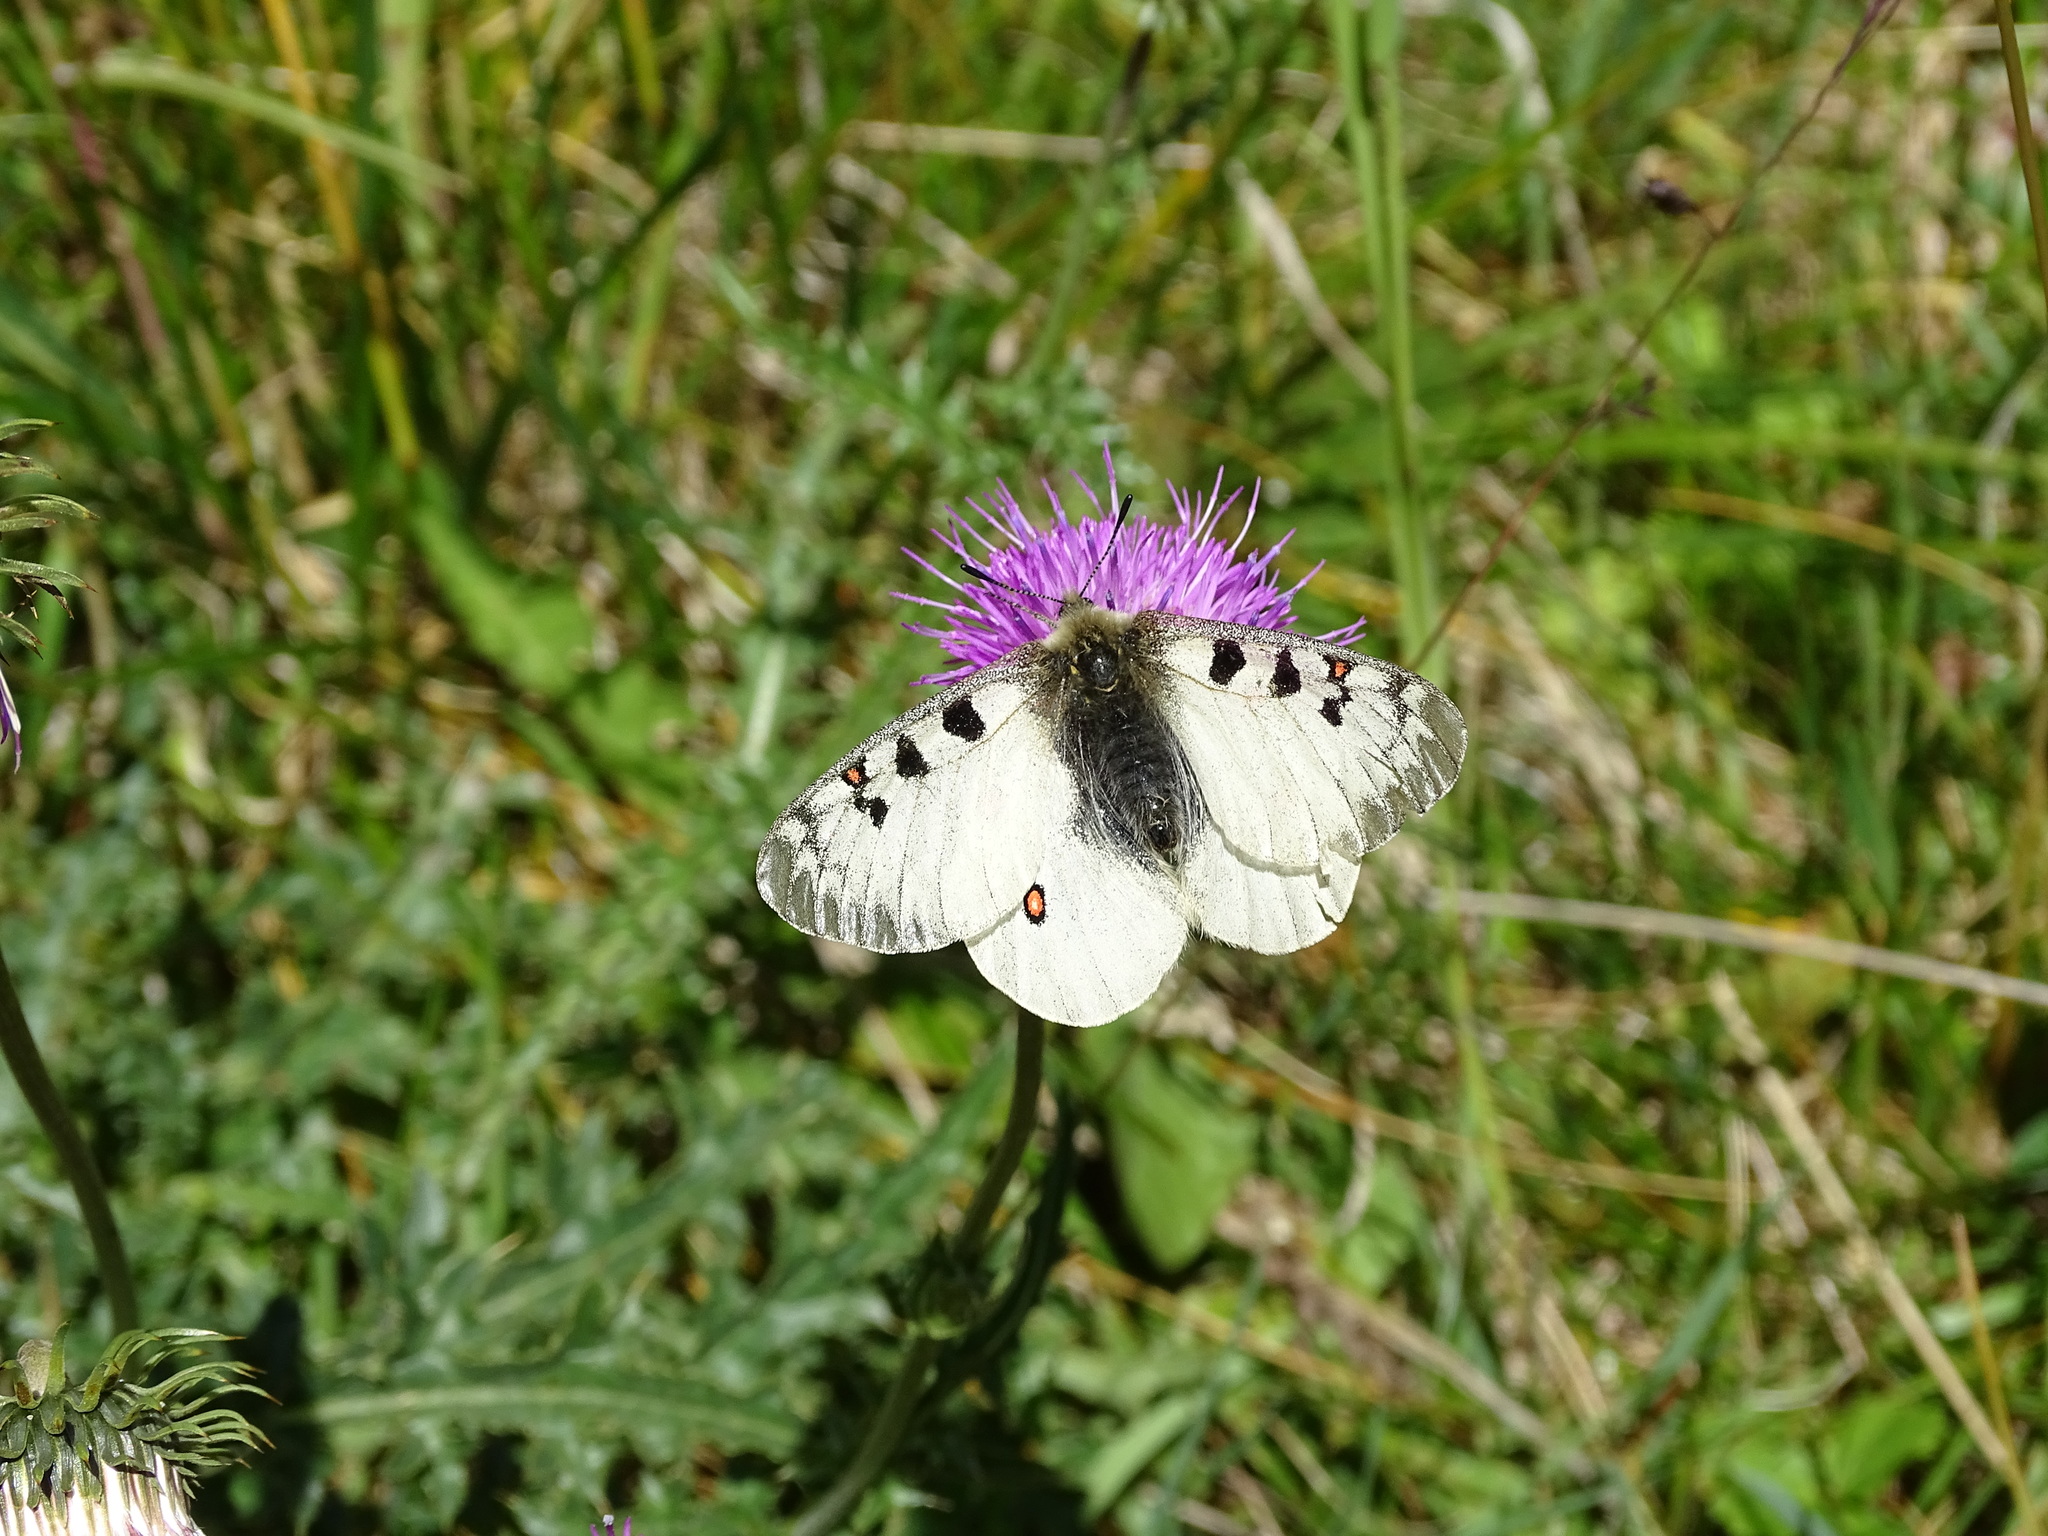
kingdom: Animalia
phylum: Arthropoda
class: Insecta
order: Lepidoptera
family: Papilionidae
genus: Parnassius
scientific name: Parnassius phoebus
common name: Small apollo
